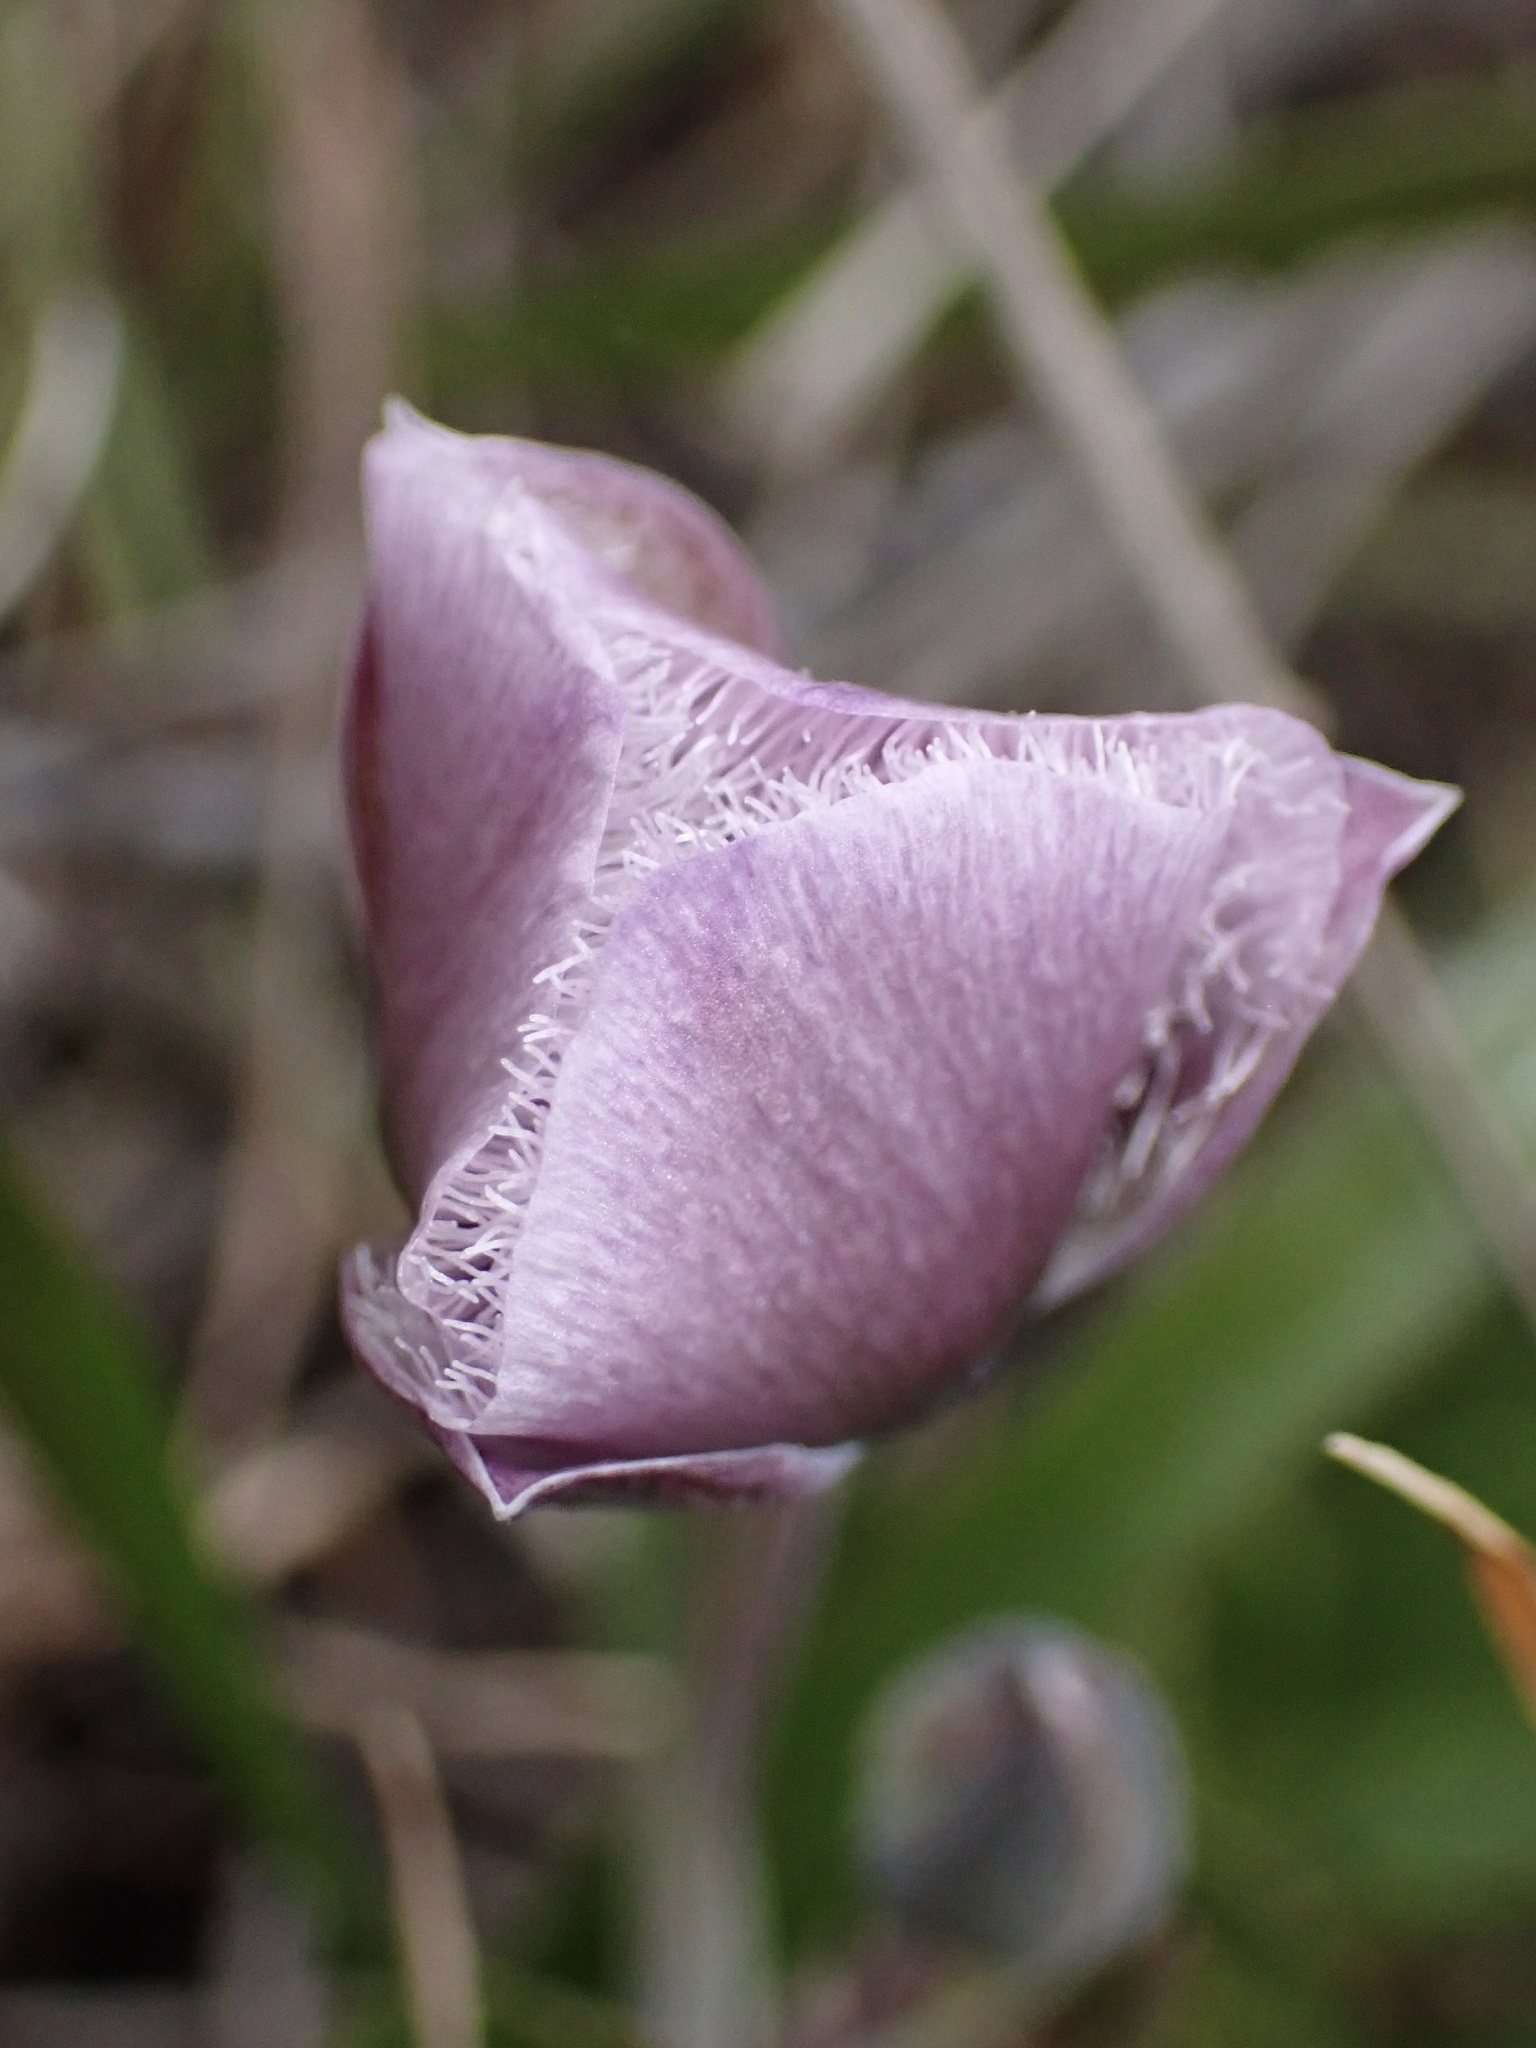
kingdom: Plantae
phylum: Tracheophyta
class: Liliopsida
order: Liliales
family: Liliaceae
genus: Calochortus
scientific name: Calochortus tolmiei
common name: Pussy-ears
